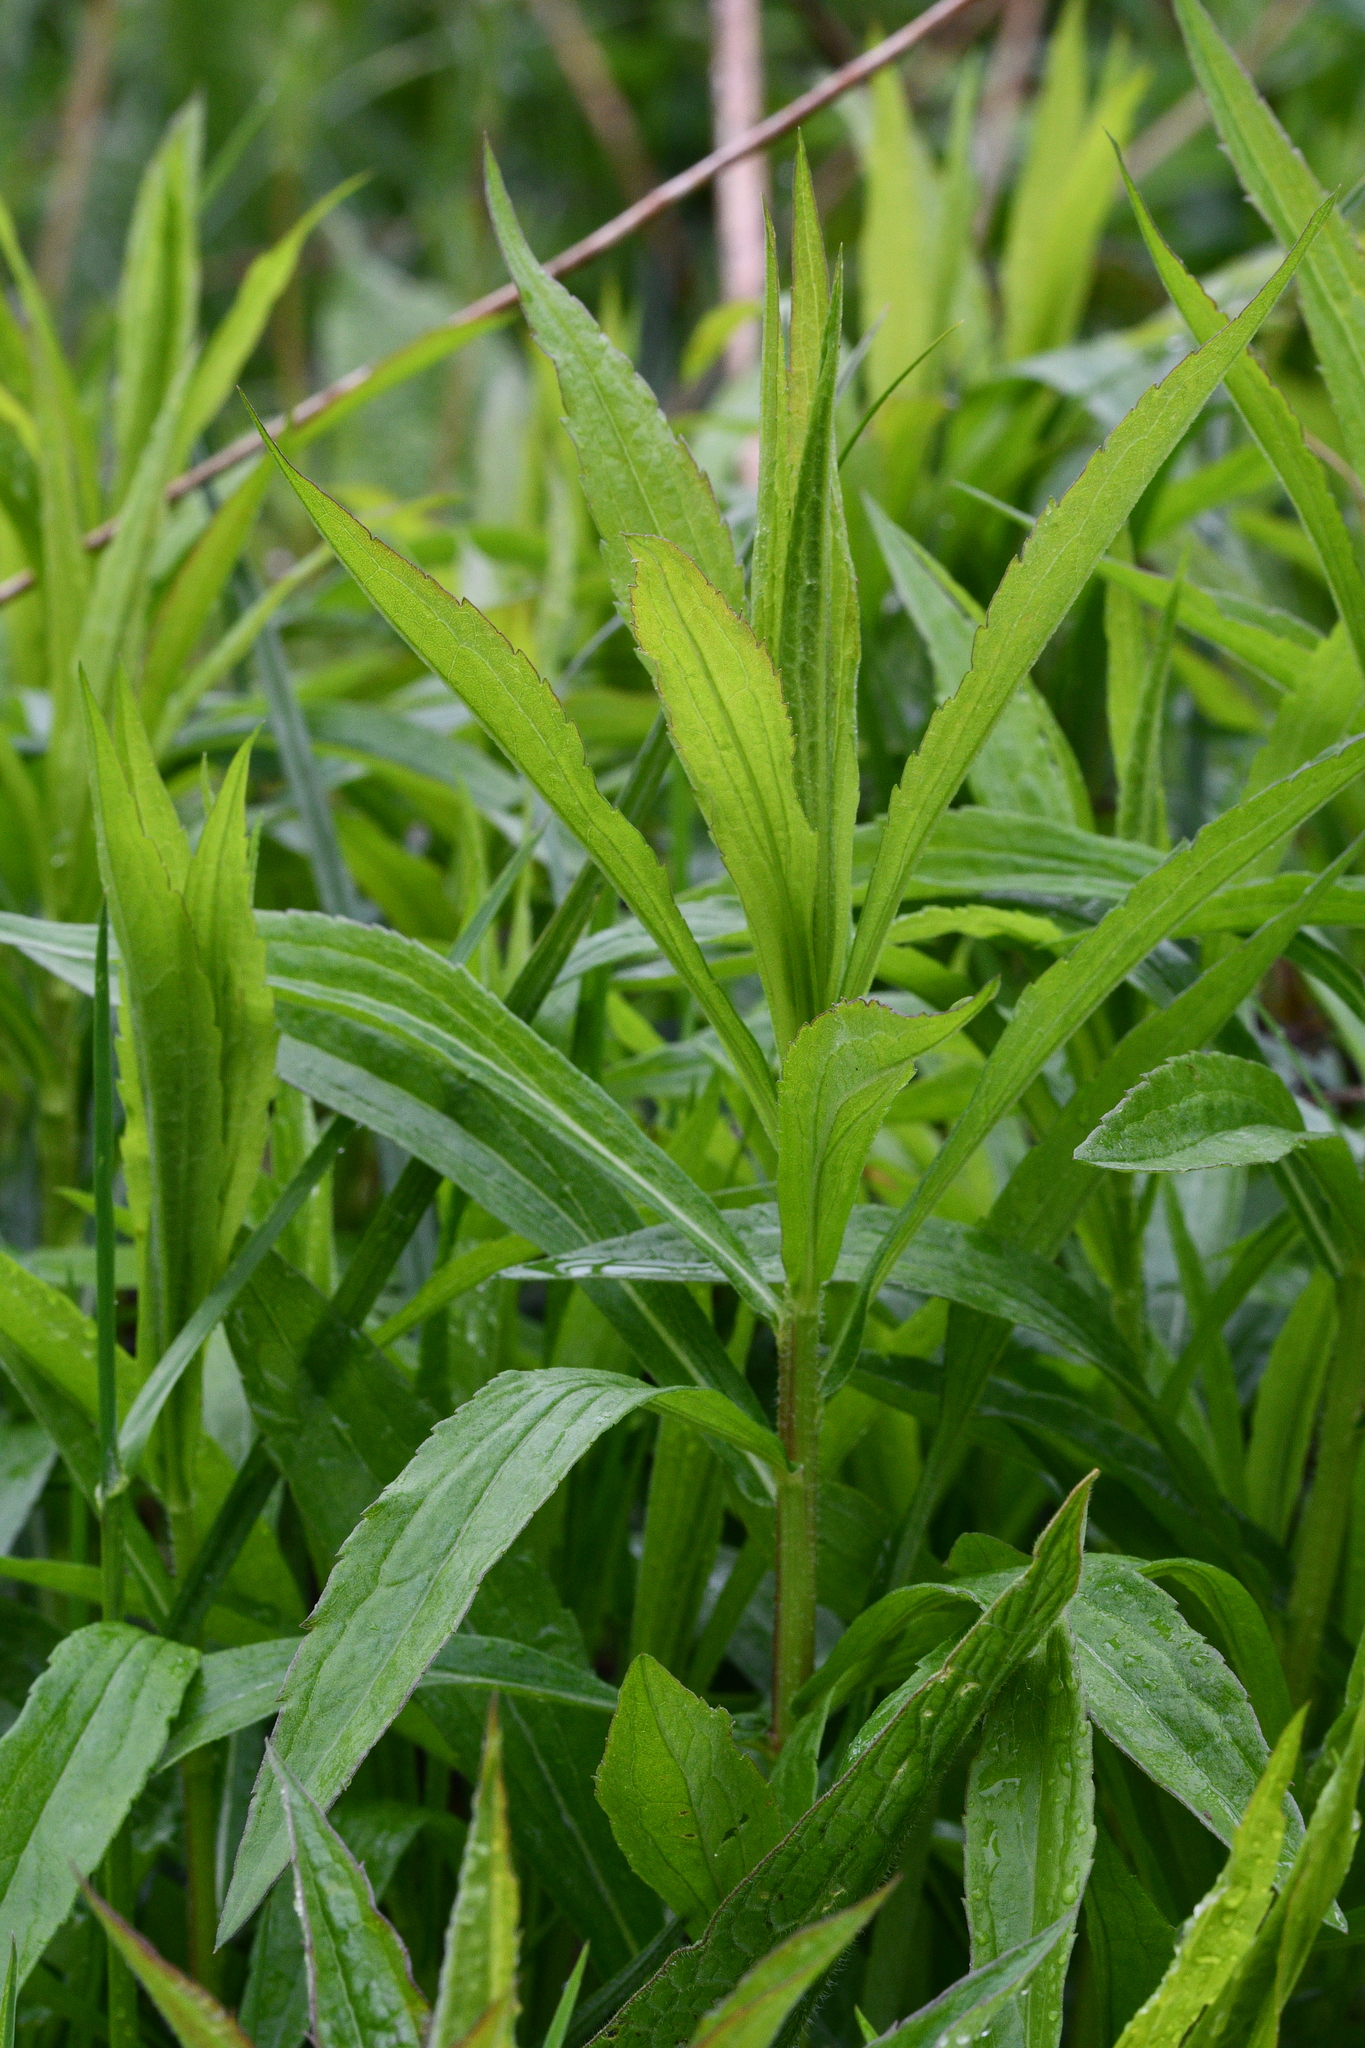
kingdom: Plantae
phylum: Tracheophyta
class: Magnoliopsida
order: Asterales
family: Asteraceae
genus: Solidago
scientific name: Solidago canadensis
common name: Canada goldenrod
